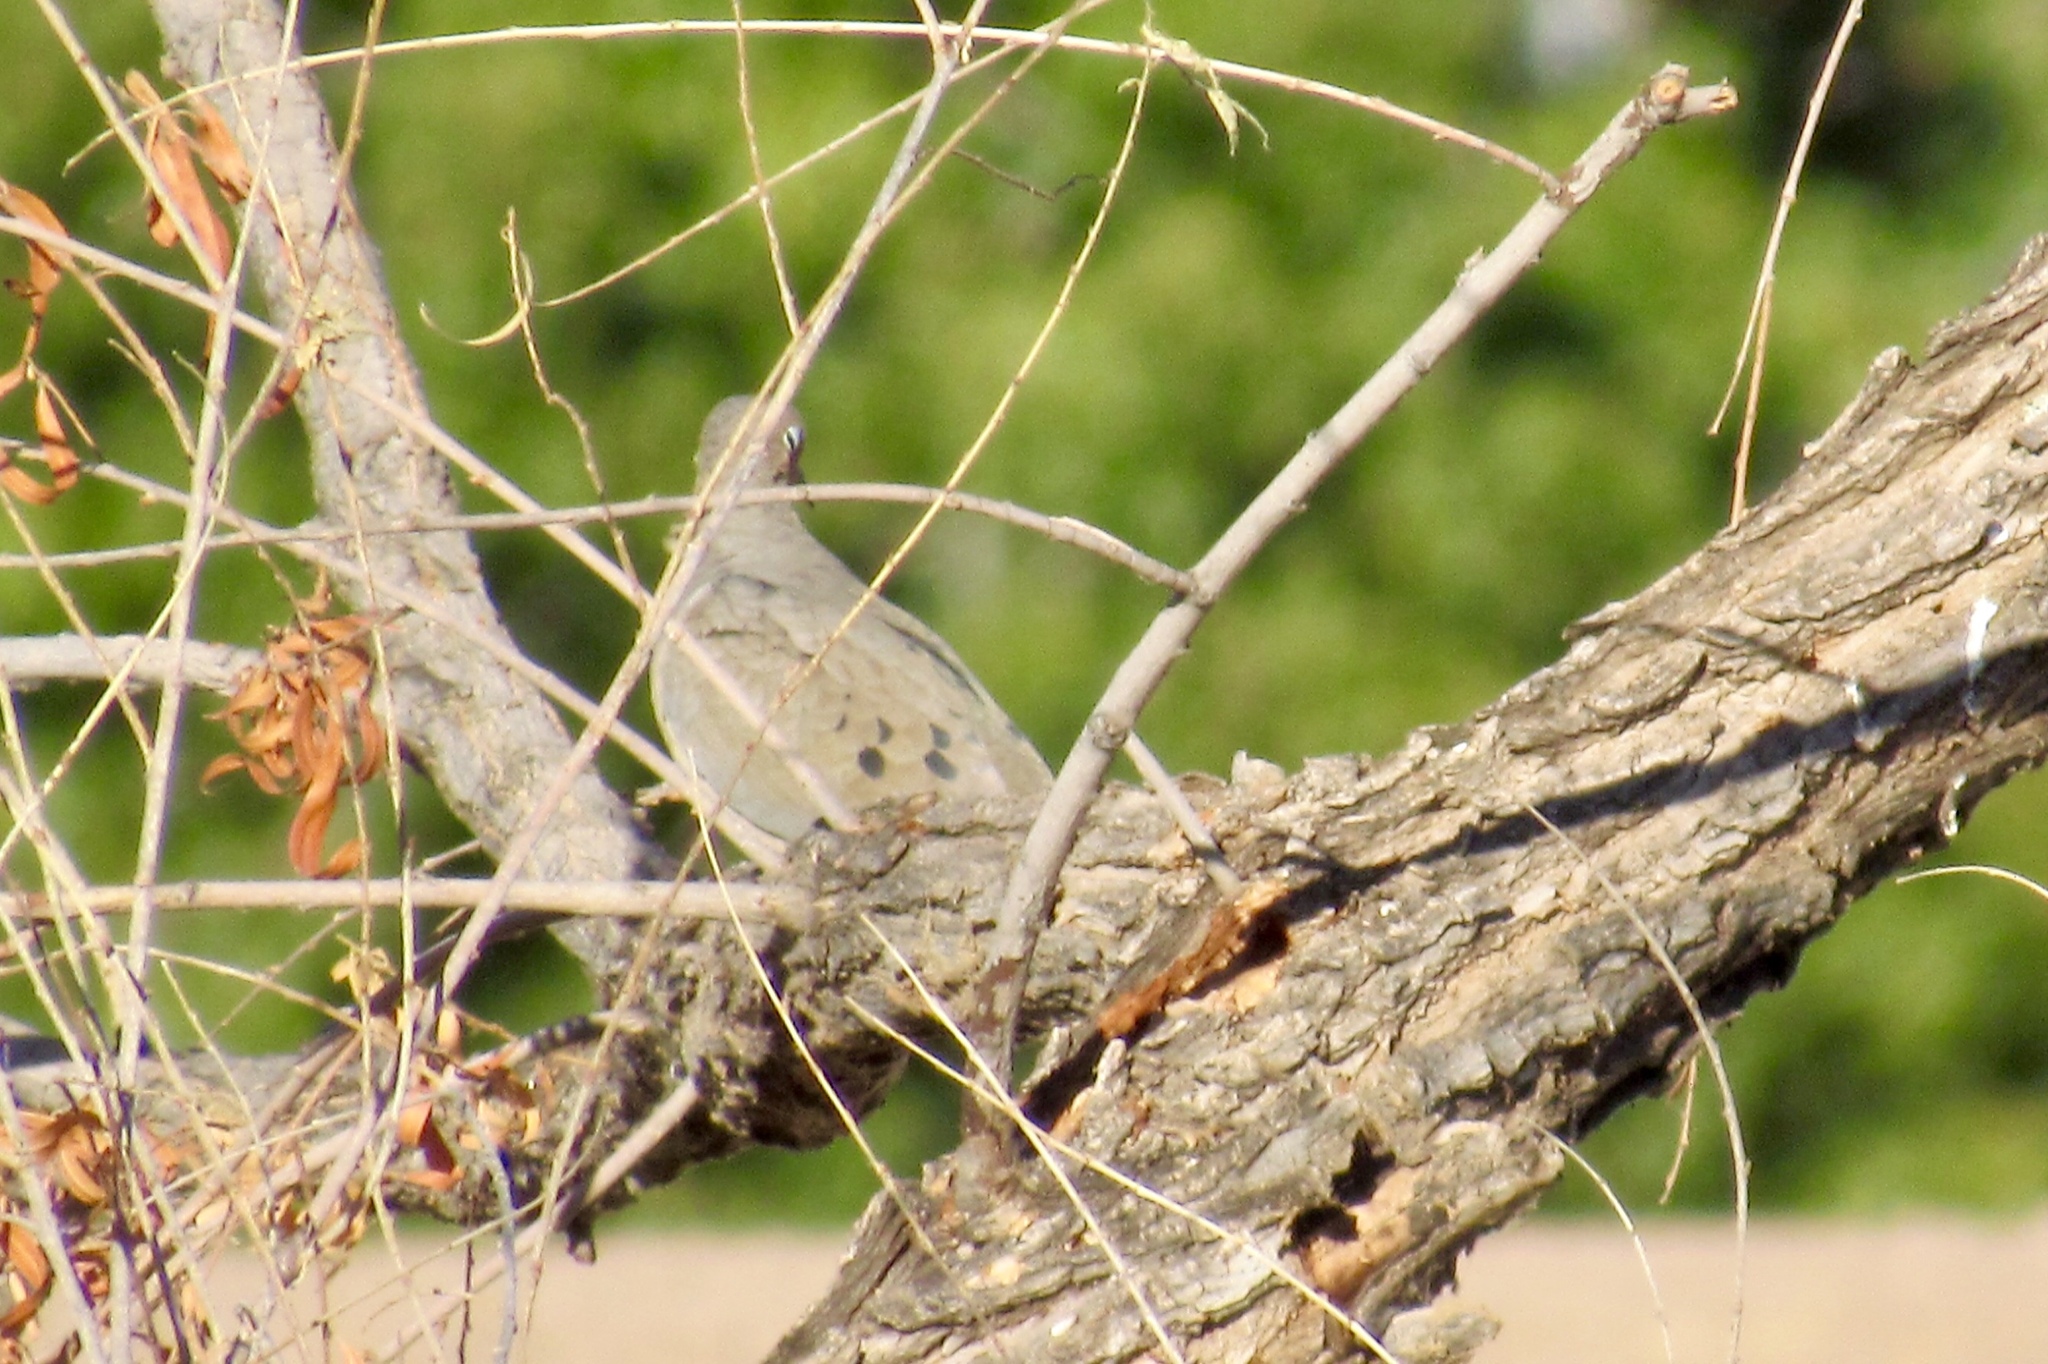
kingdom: Animalia
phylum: Chordata
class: Aves
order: Columbiformes
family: Columbidae
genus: Zenaida
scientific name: Zenaida macroura
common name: Mourning dove
